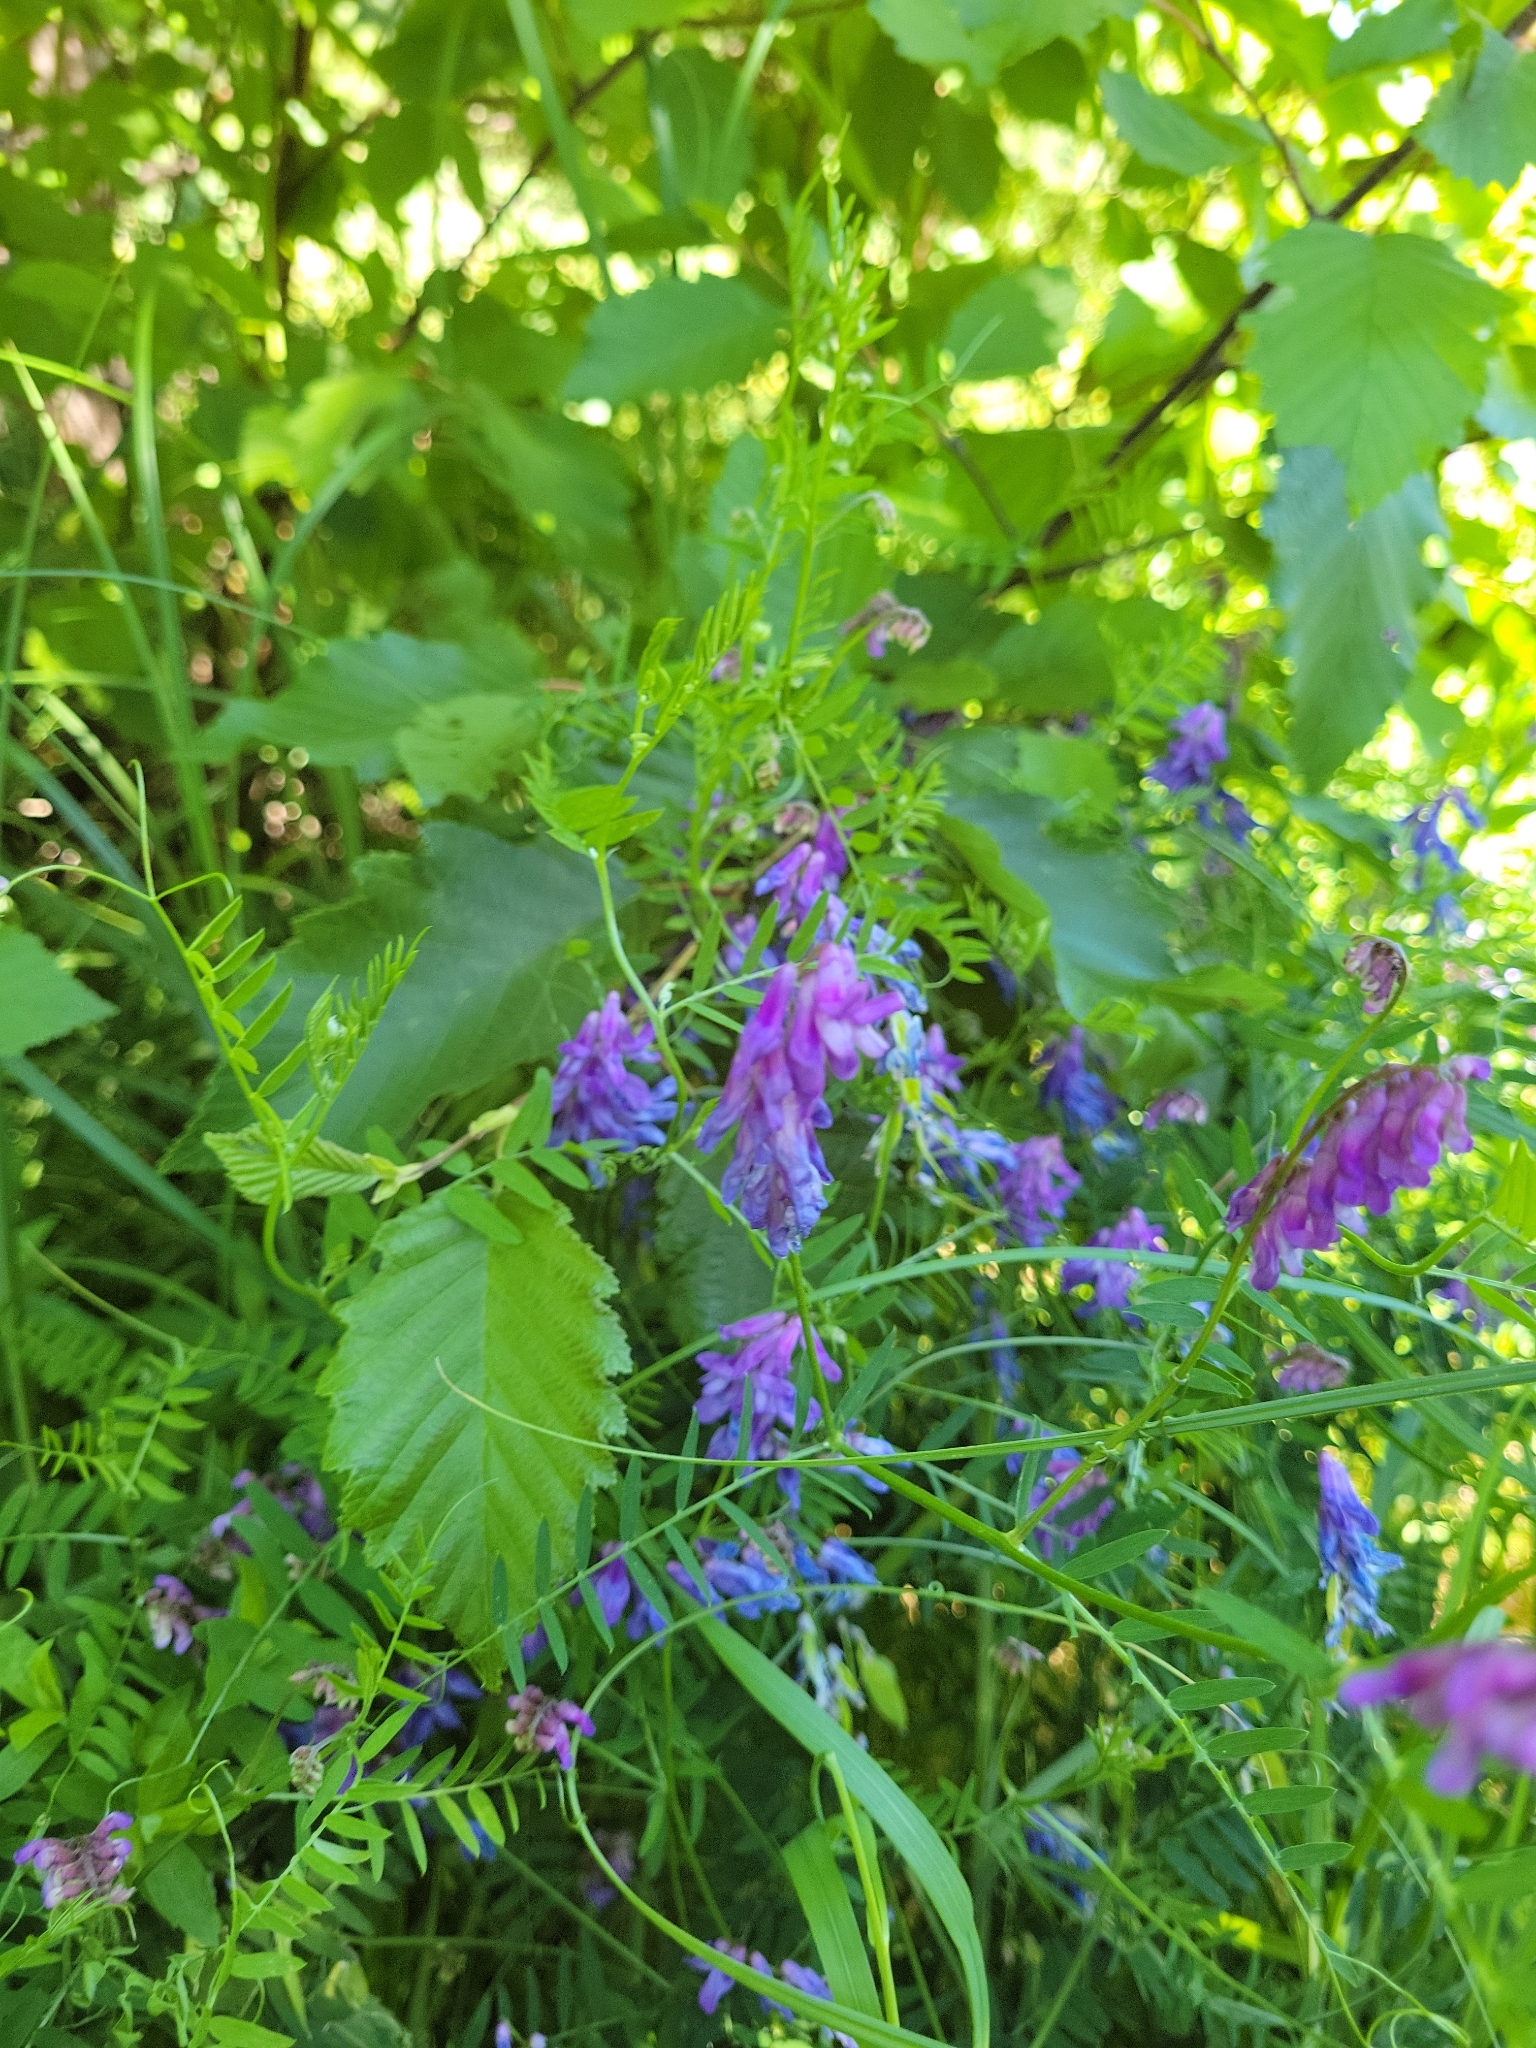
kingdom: Plantae
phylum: Tracheophyta
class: Magnoliopsida
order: Fabales
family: Fabaceae
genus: Vicia
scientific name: Vicia cracca
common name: Bird vetch
